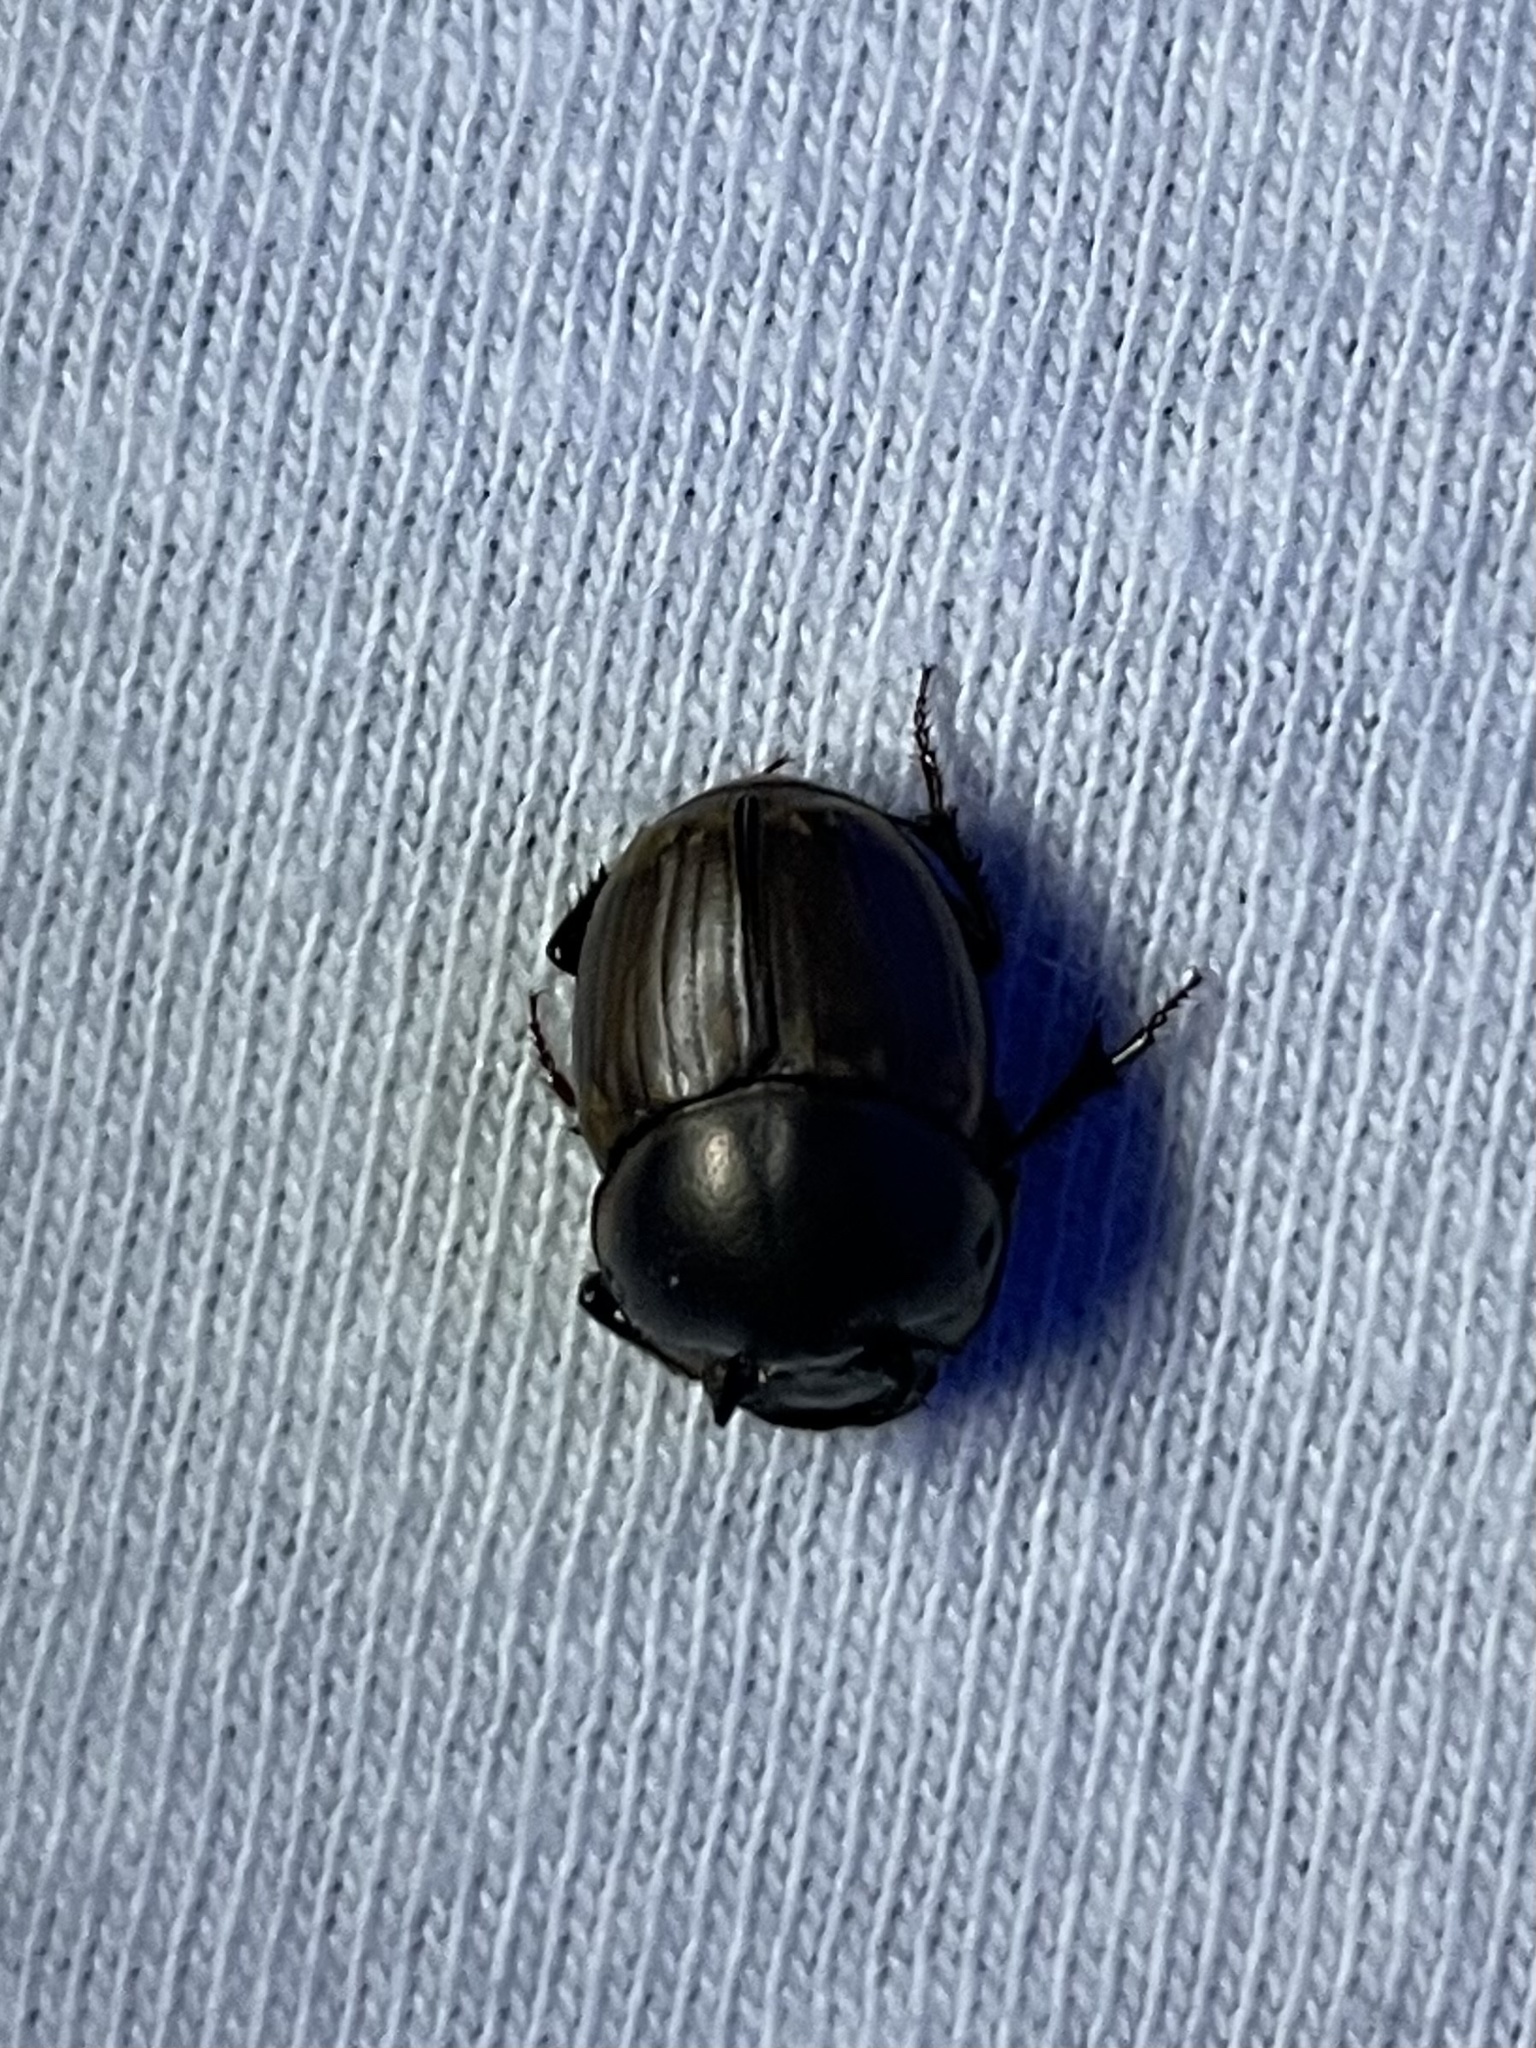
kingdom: Animalia
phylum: Arthropoda
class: Insecta
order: Coleoptera
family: Scarabaeidae
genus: Digitonthophagus
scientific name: Digitonthophagus gazella
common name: Brown dung beetle
